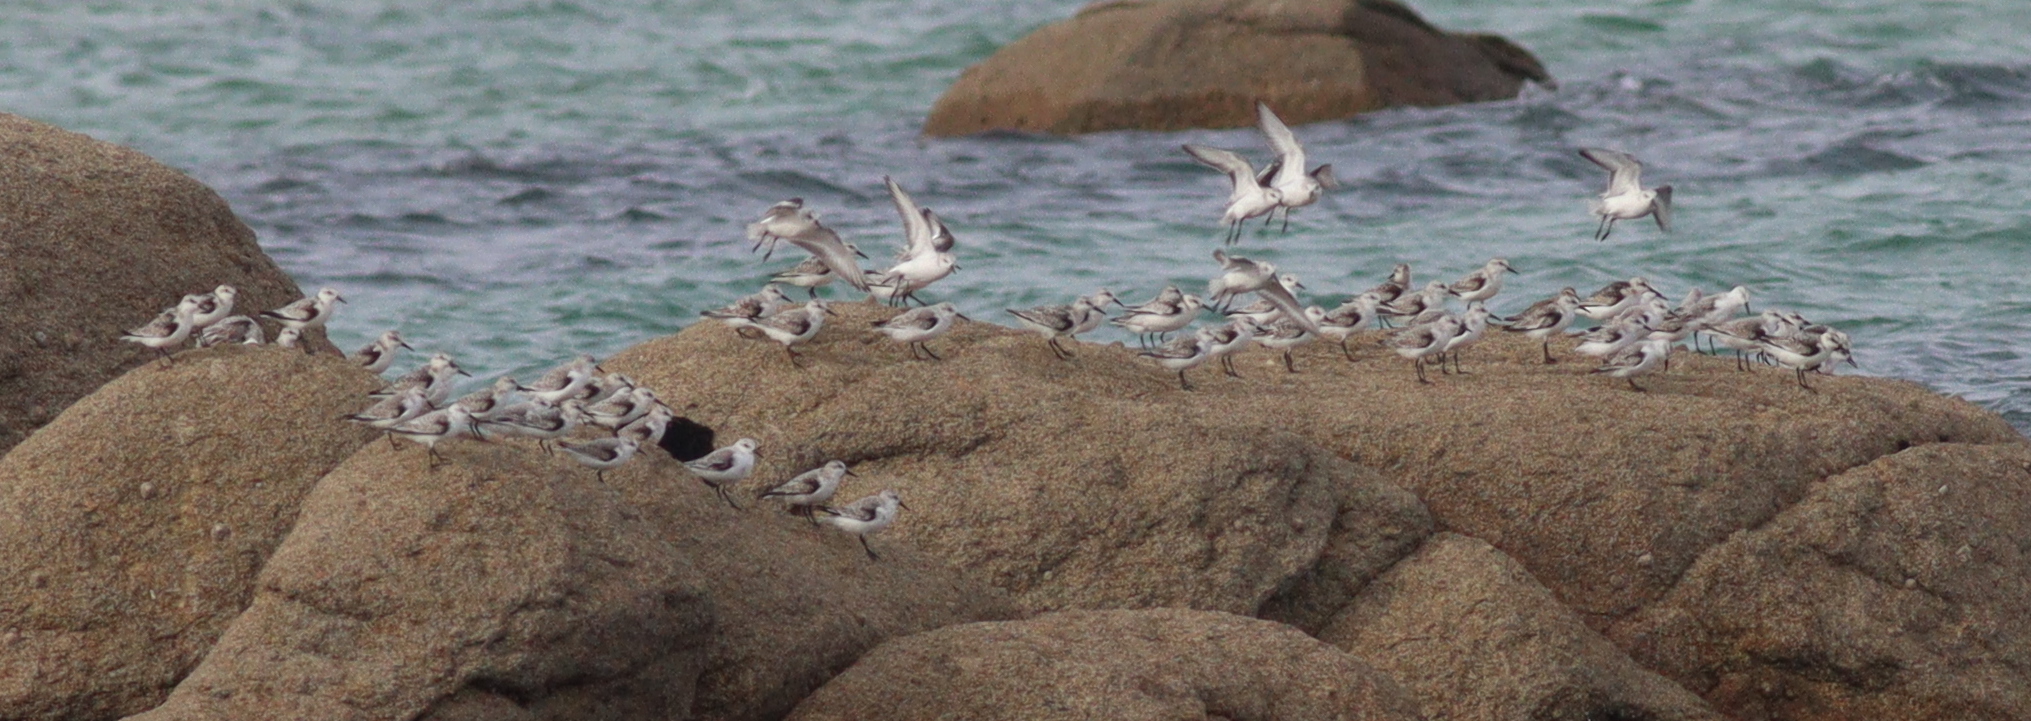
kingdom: Animalia
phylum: Chordata
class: Aves
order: Charadriiformes
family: Scolopacidae
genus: Calidris
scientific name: Calidris alba
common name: Sanderling
